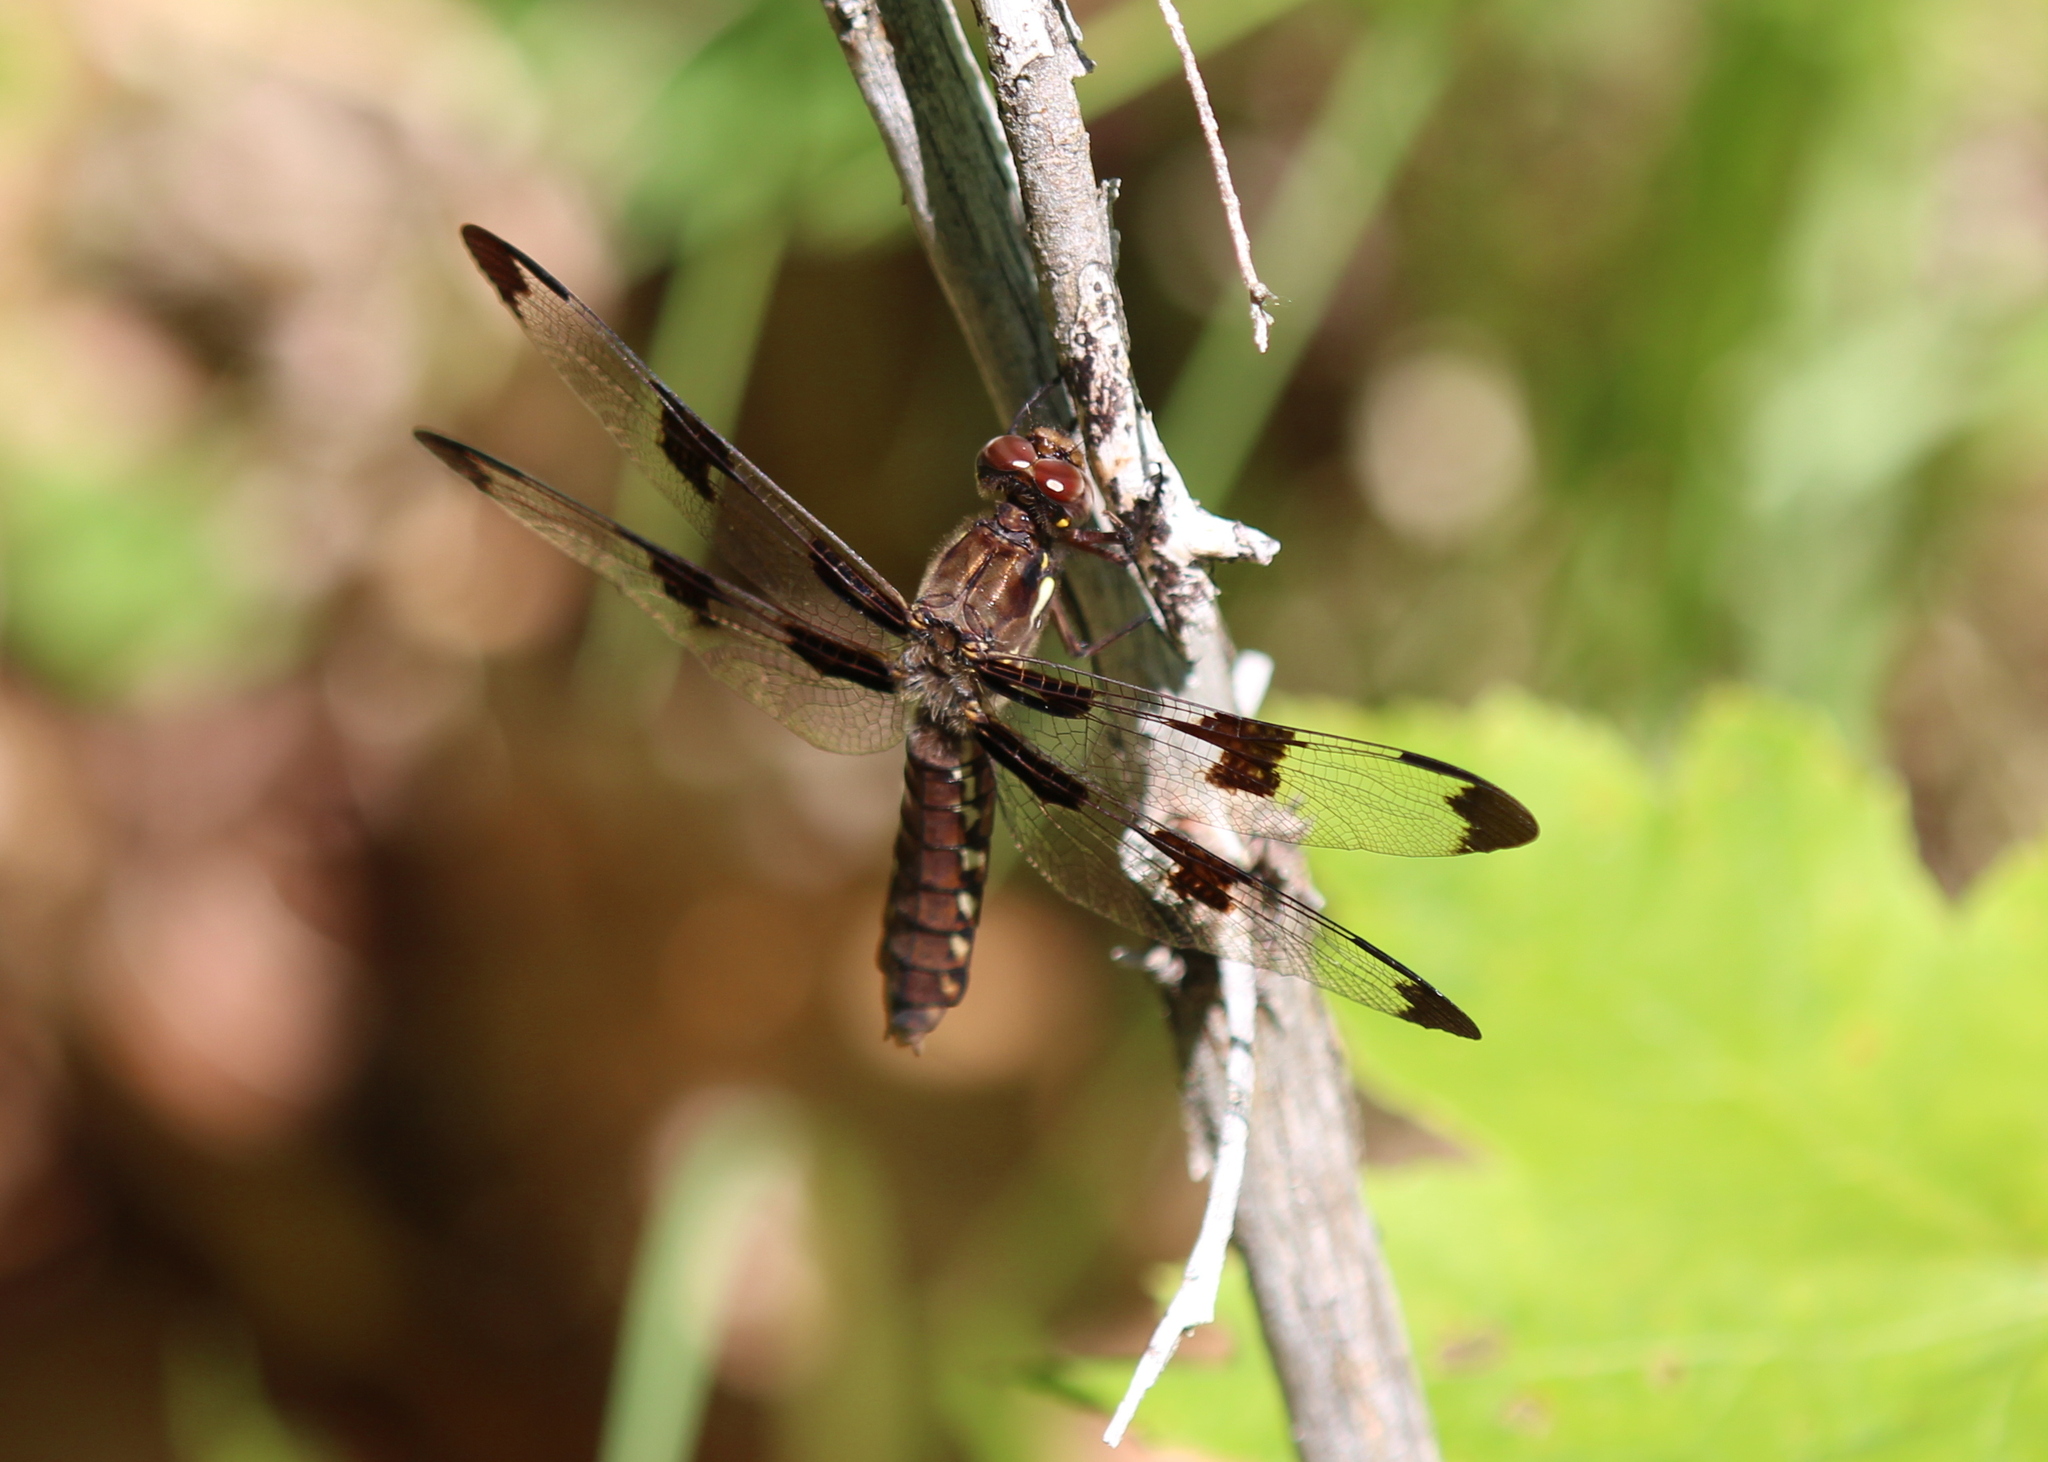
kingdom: Animalia
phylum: Arthropoda
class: Insecta
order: Odonata
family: Libellulidae
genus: Plathemis
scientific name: Plathemis lydia
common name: Common whitetail
